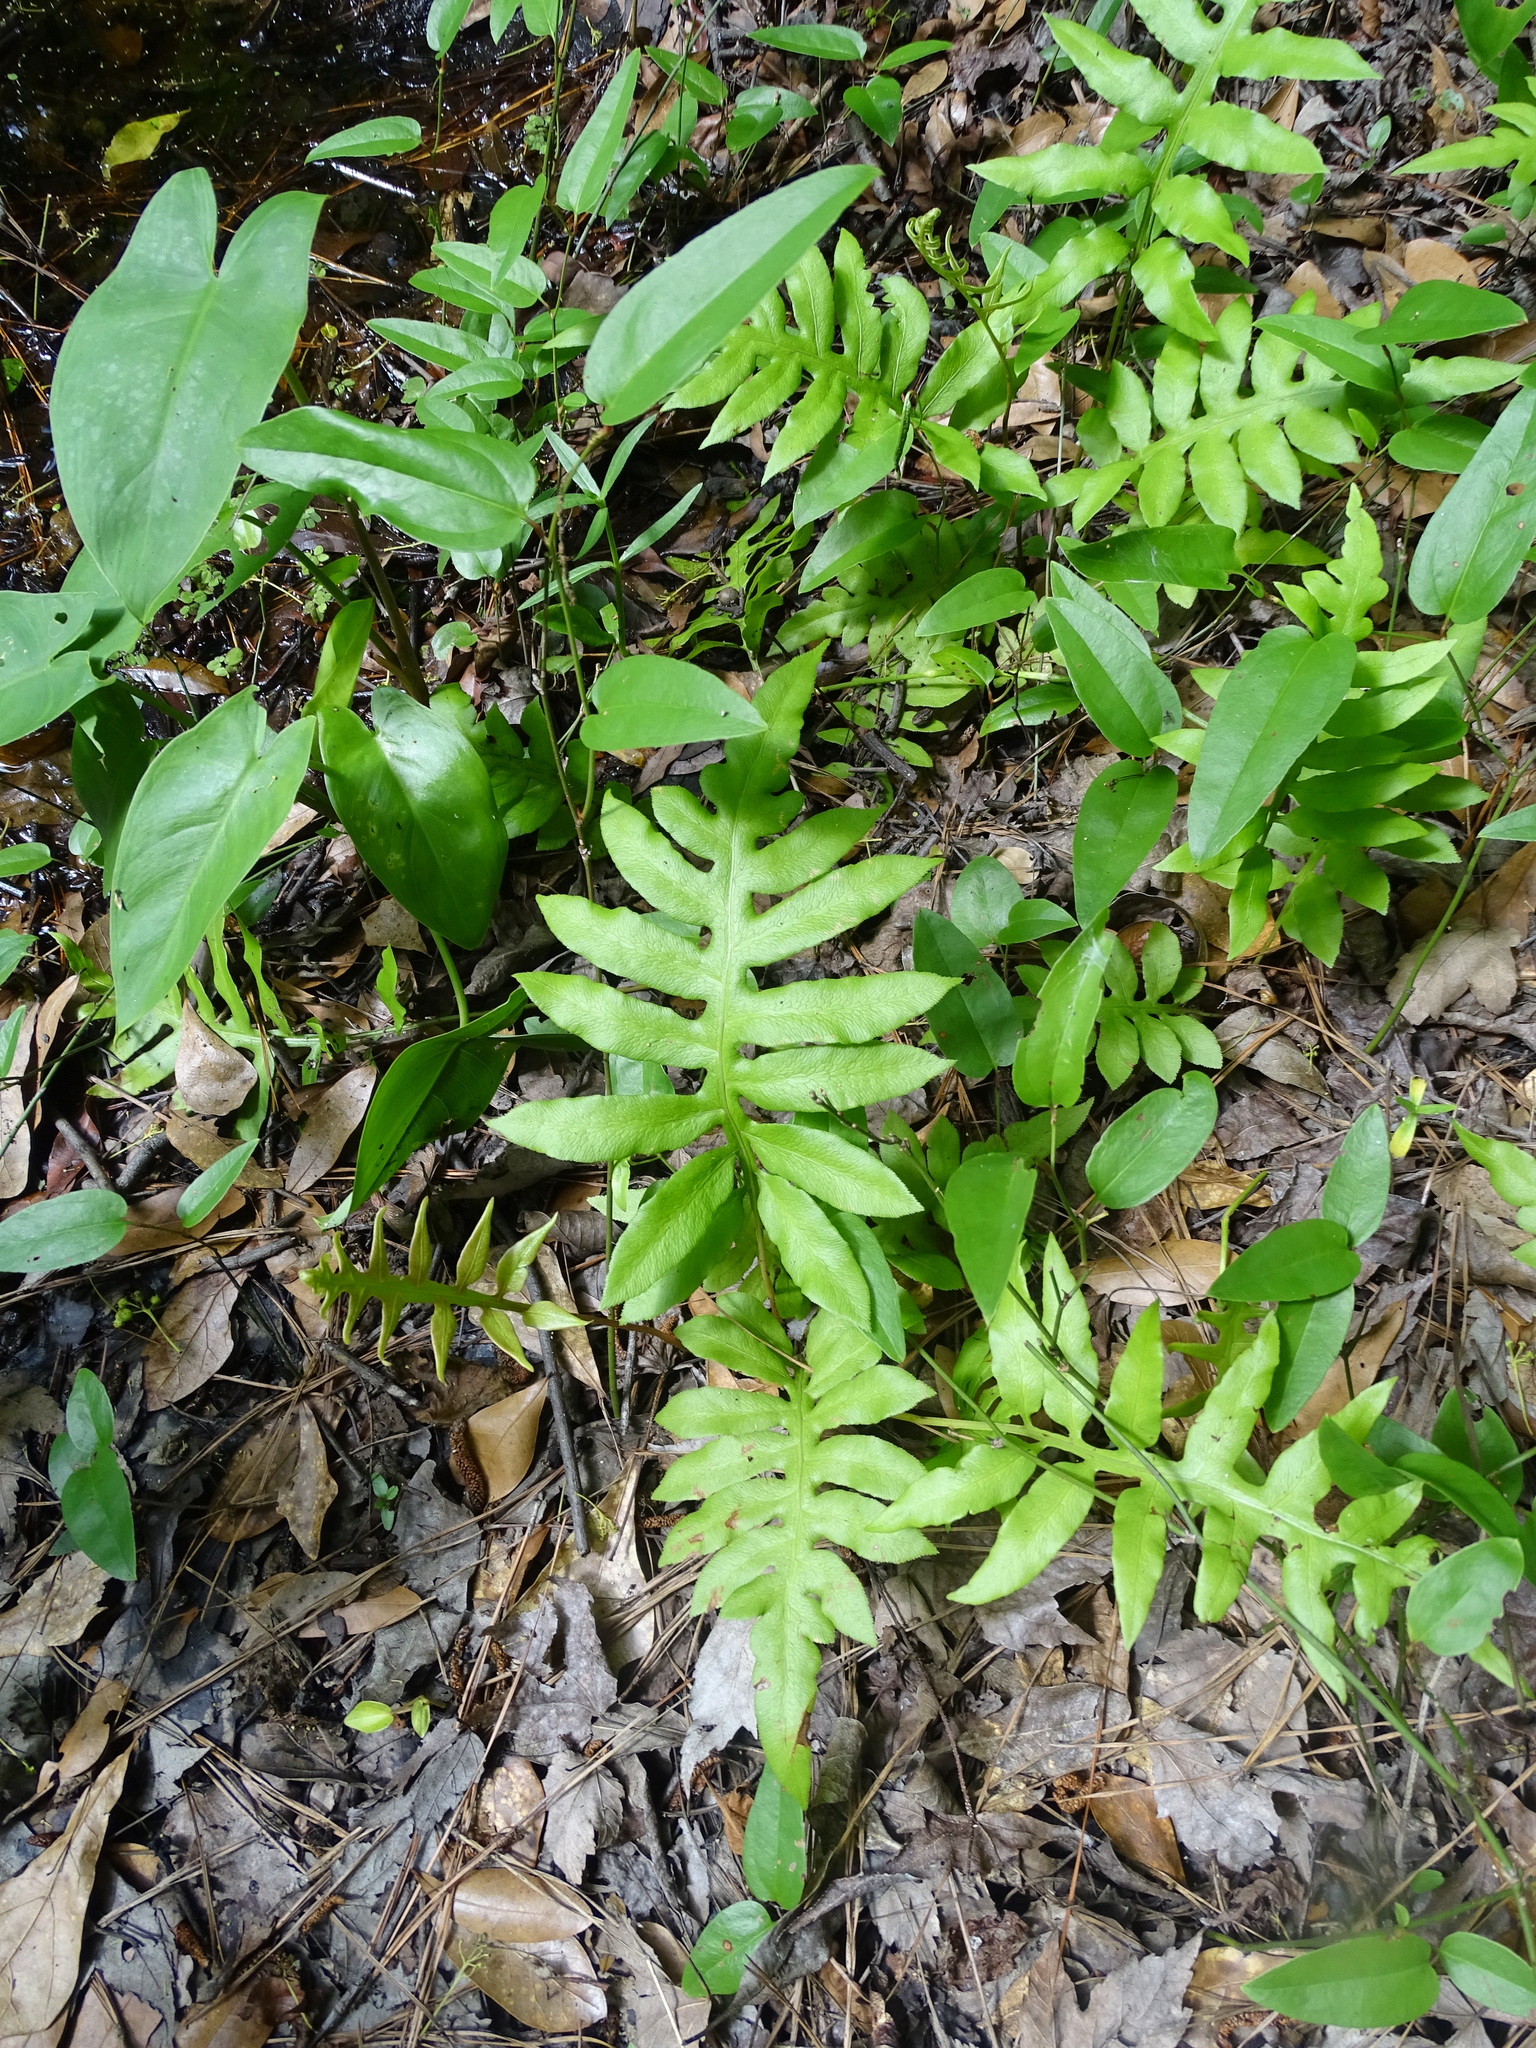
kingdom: Plantae
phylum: Tracheophyta
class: Polypodiopsida
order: Polypodiales
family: Blechnaceae
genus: Lorinseria
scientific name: Lorinseria areolata
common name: Dwarf chain fern
